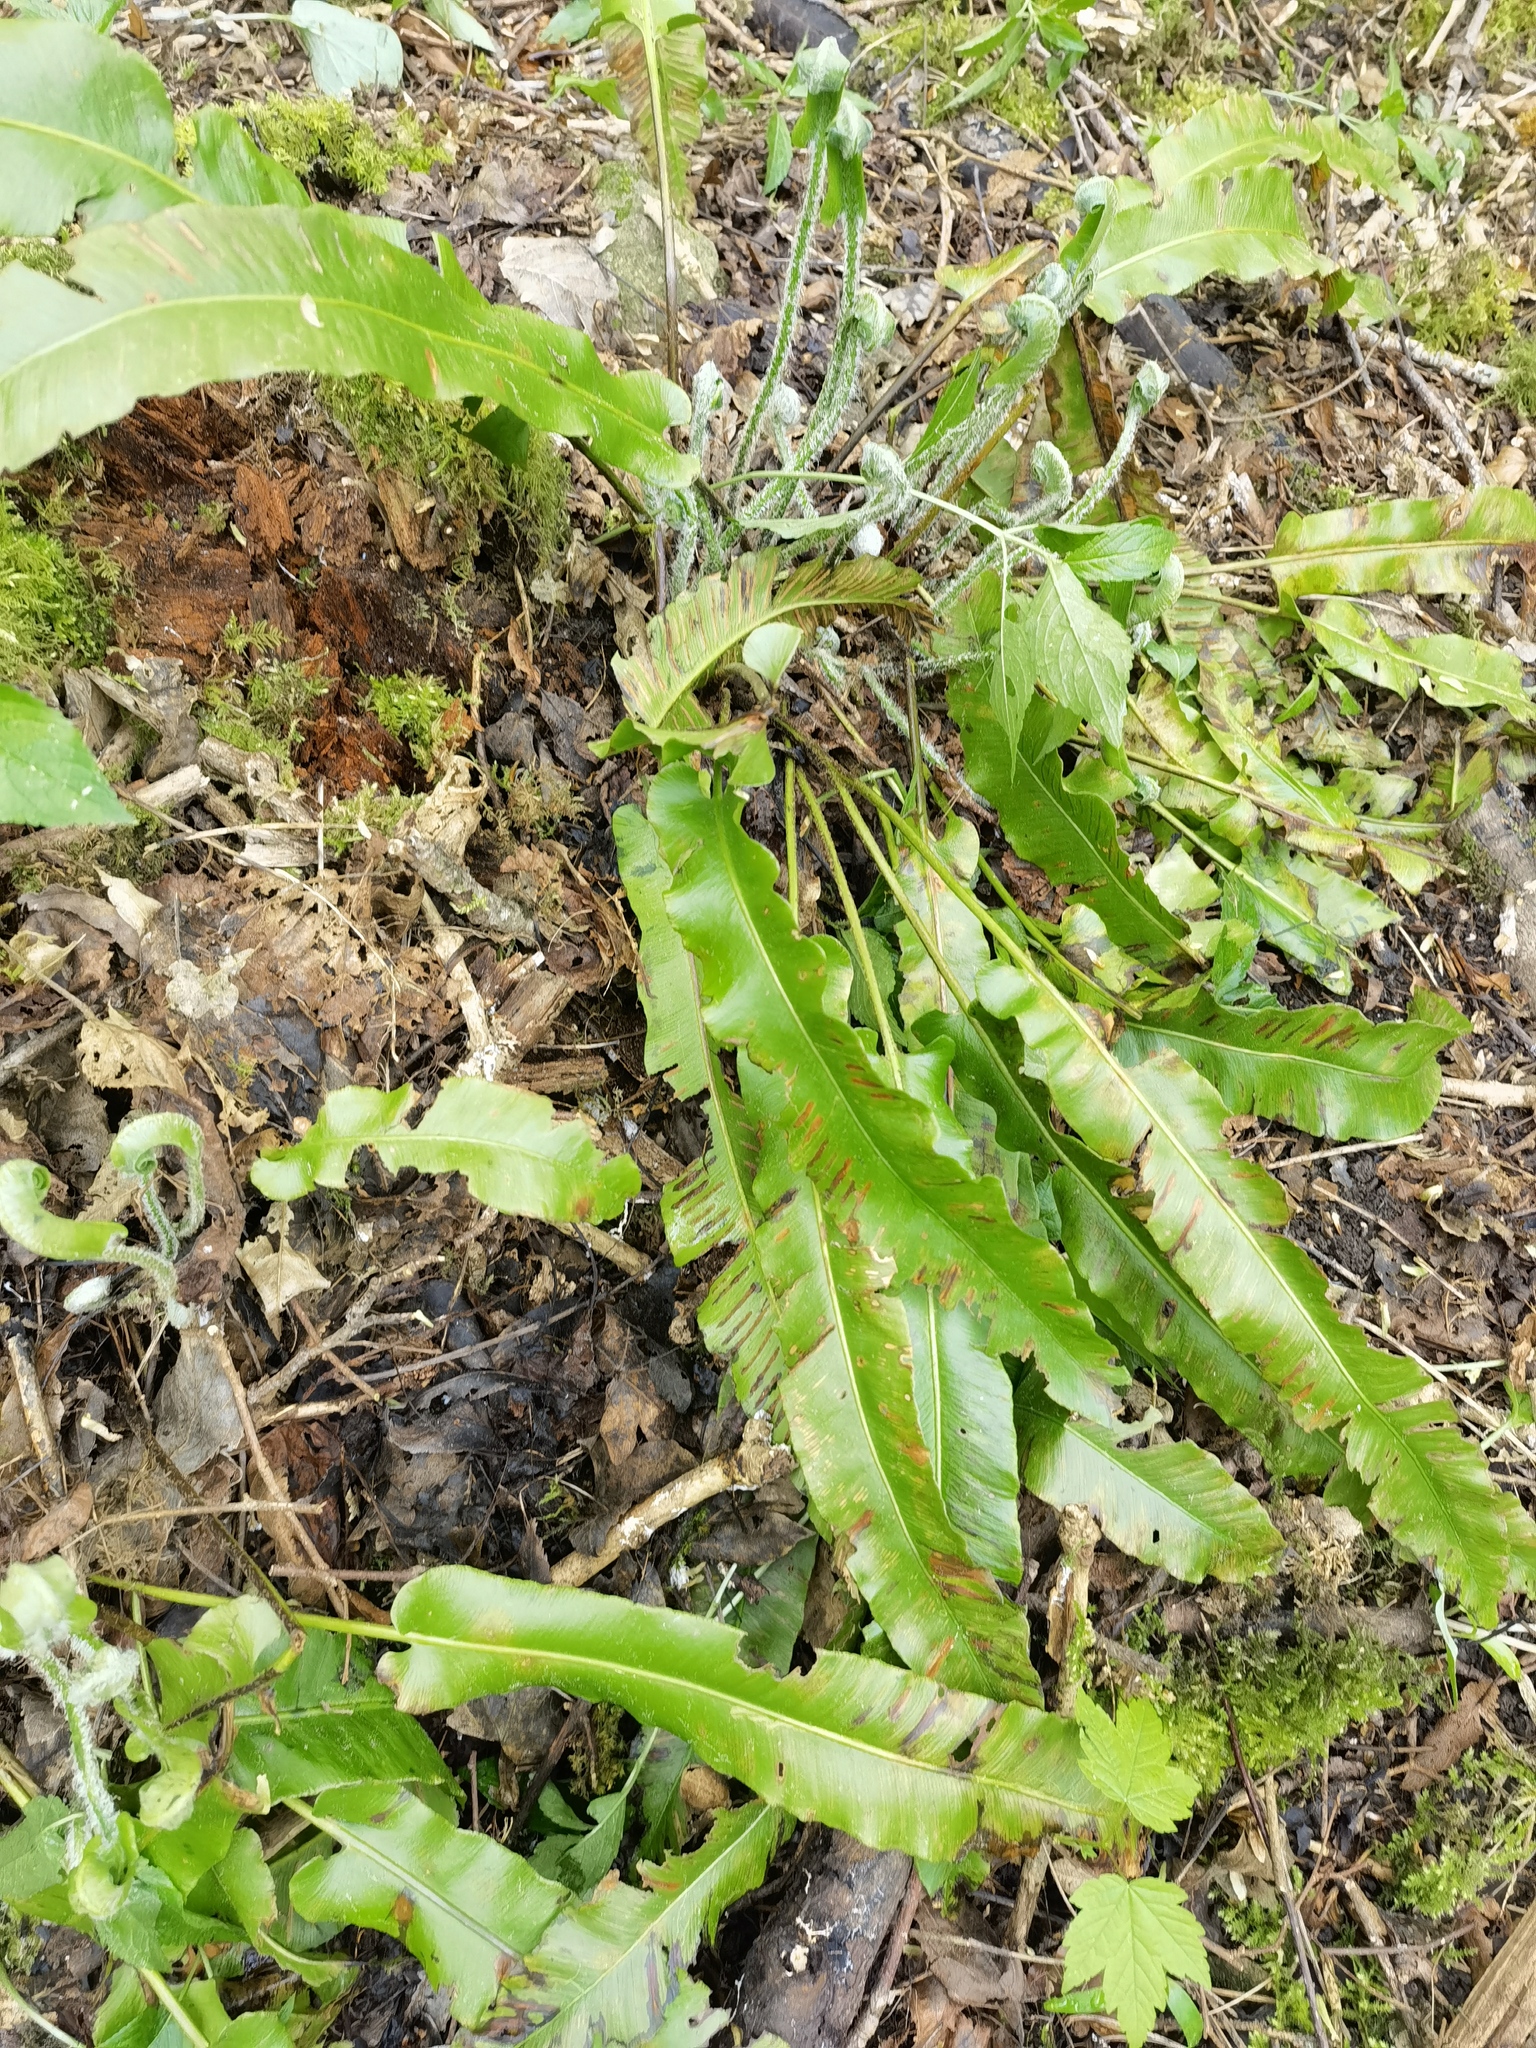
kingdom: Plantae
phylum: Tracheophyta
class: Polypodiopsida
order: Polypodiales
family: Aspleniaceae
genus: Asplenium
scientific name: Asplenium scolopendrium
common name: Hart's-tongue fern
